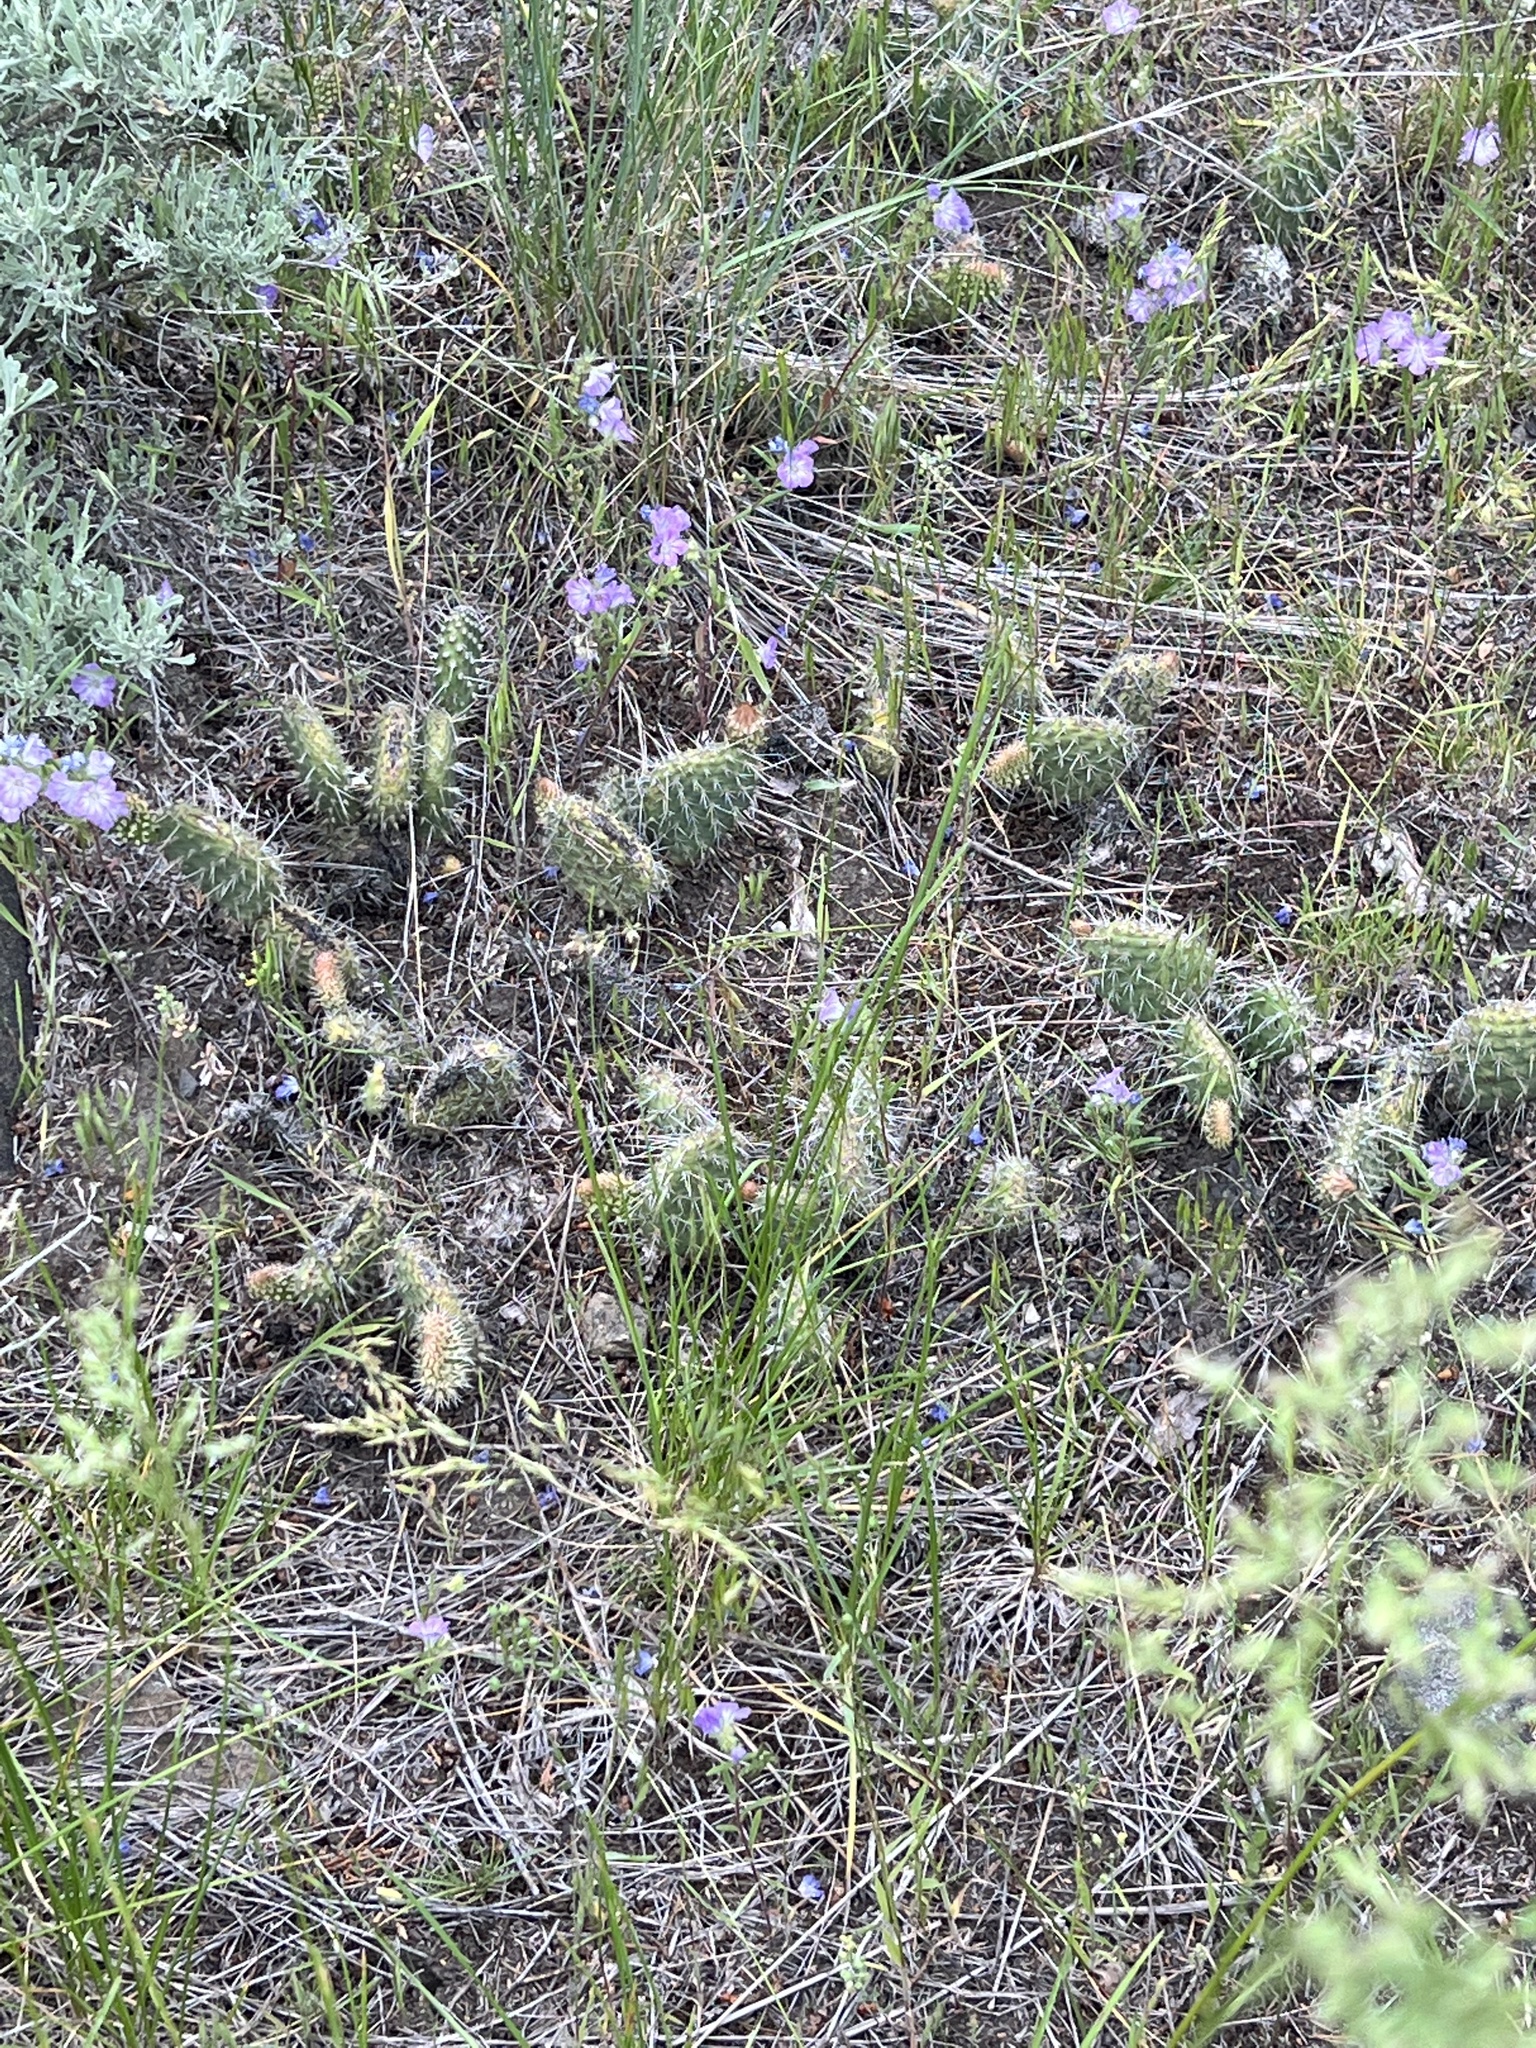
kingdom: Plantae
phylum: Tracheophyta
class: Magnoliopsida
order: Caryophyllales
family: Cactaceae
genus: Opuntia
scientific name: Opuntia polyacantha
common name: Plains prickly-pear
